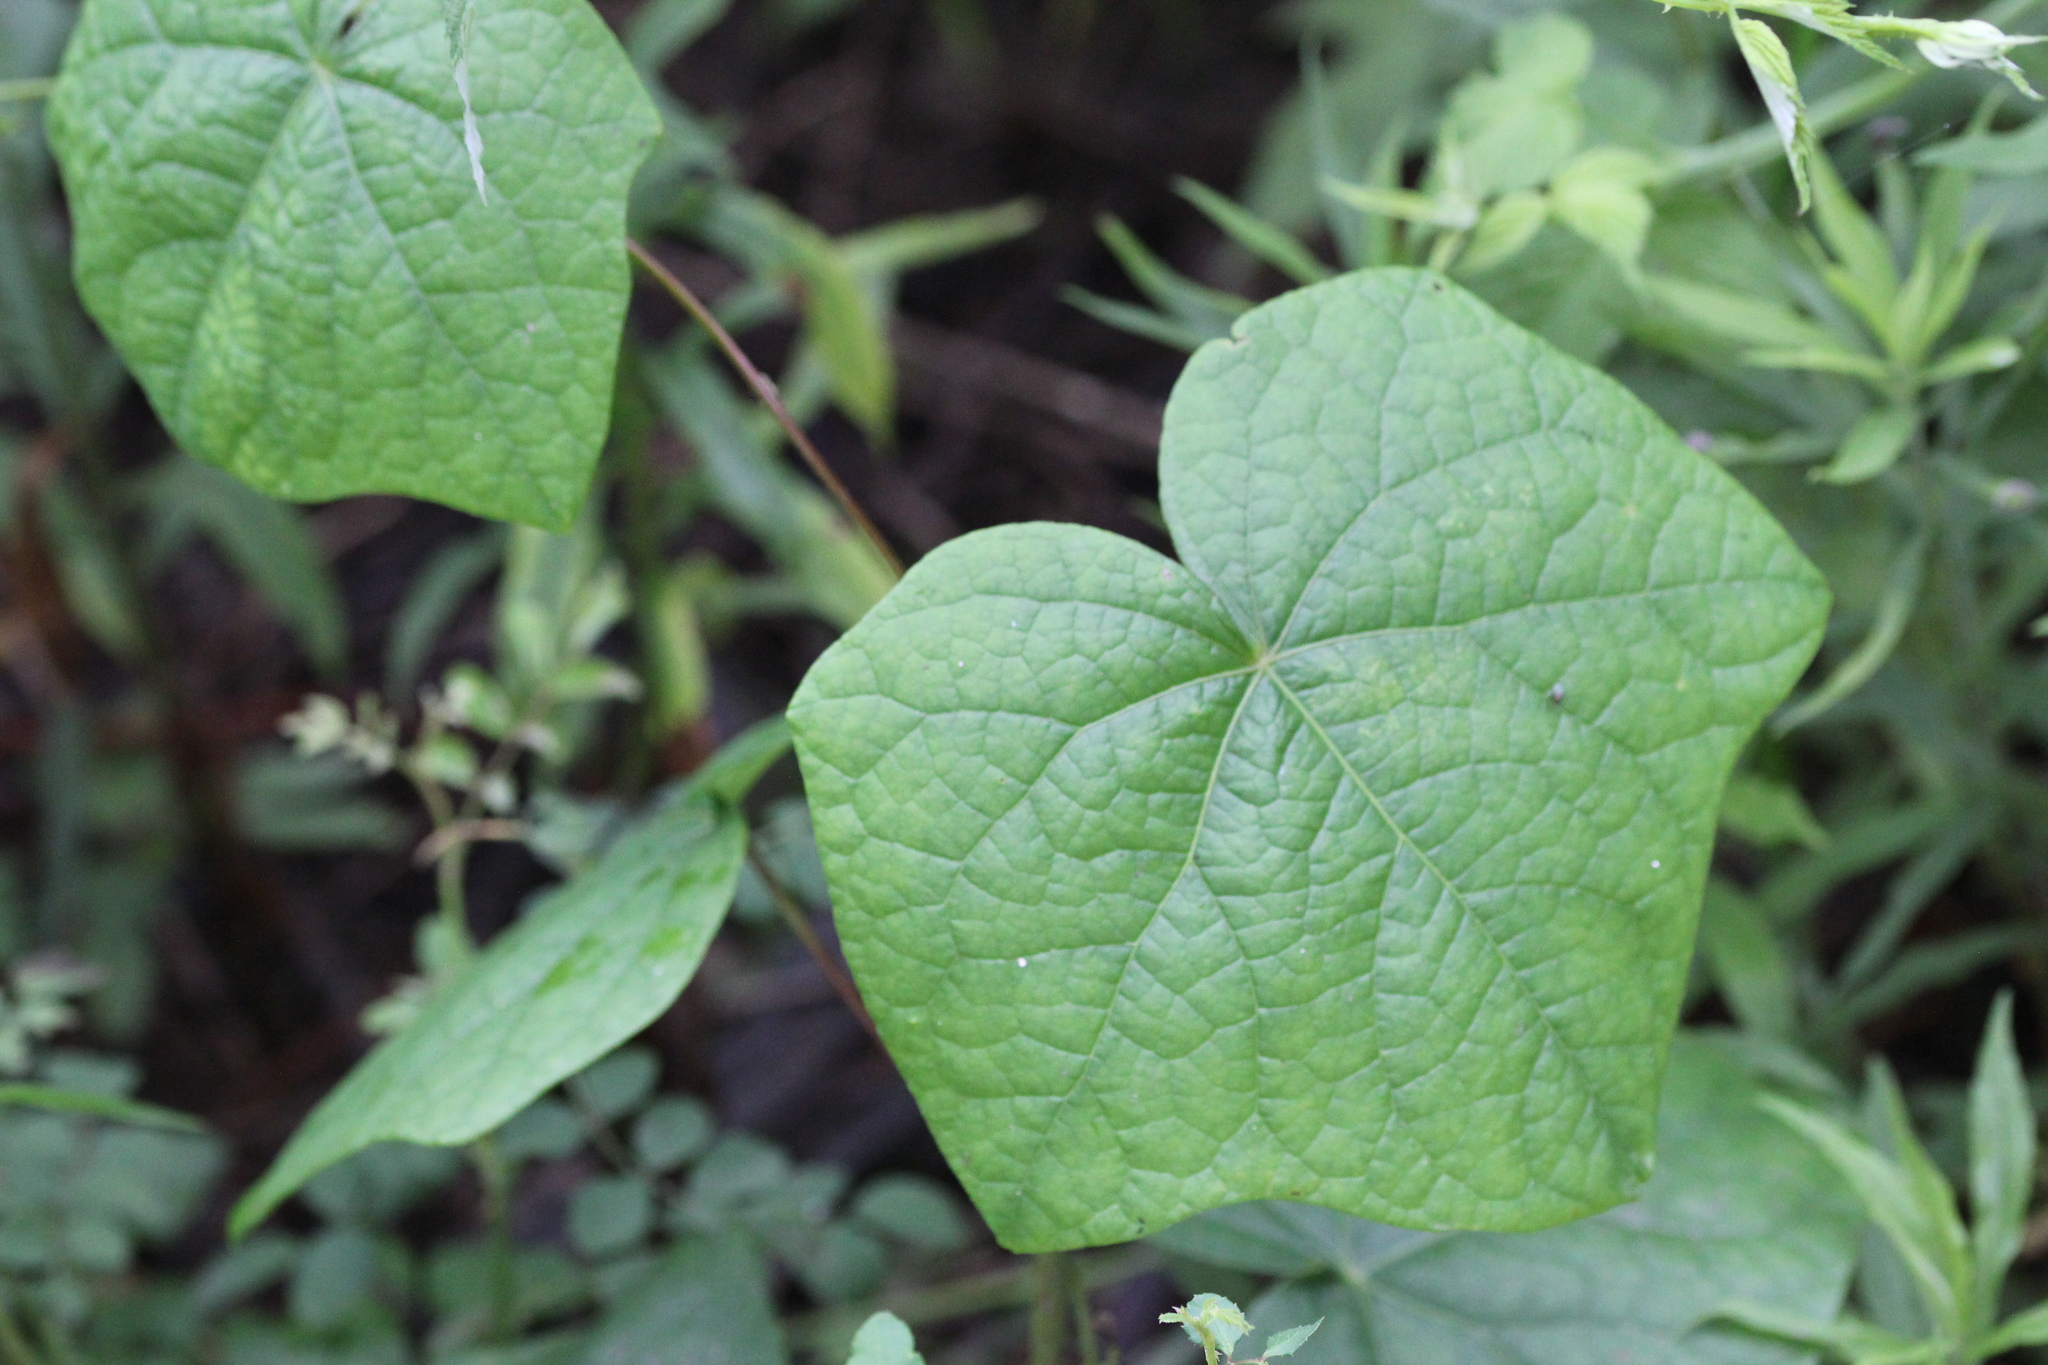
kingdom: Plantae
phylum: Tracheophyta
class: Magnoliopsida
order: Ranunculales
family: Menispermaceae
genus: Menispermum
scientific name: Menispermum canadense
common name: Moonseed
